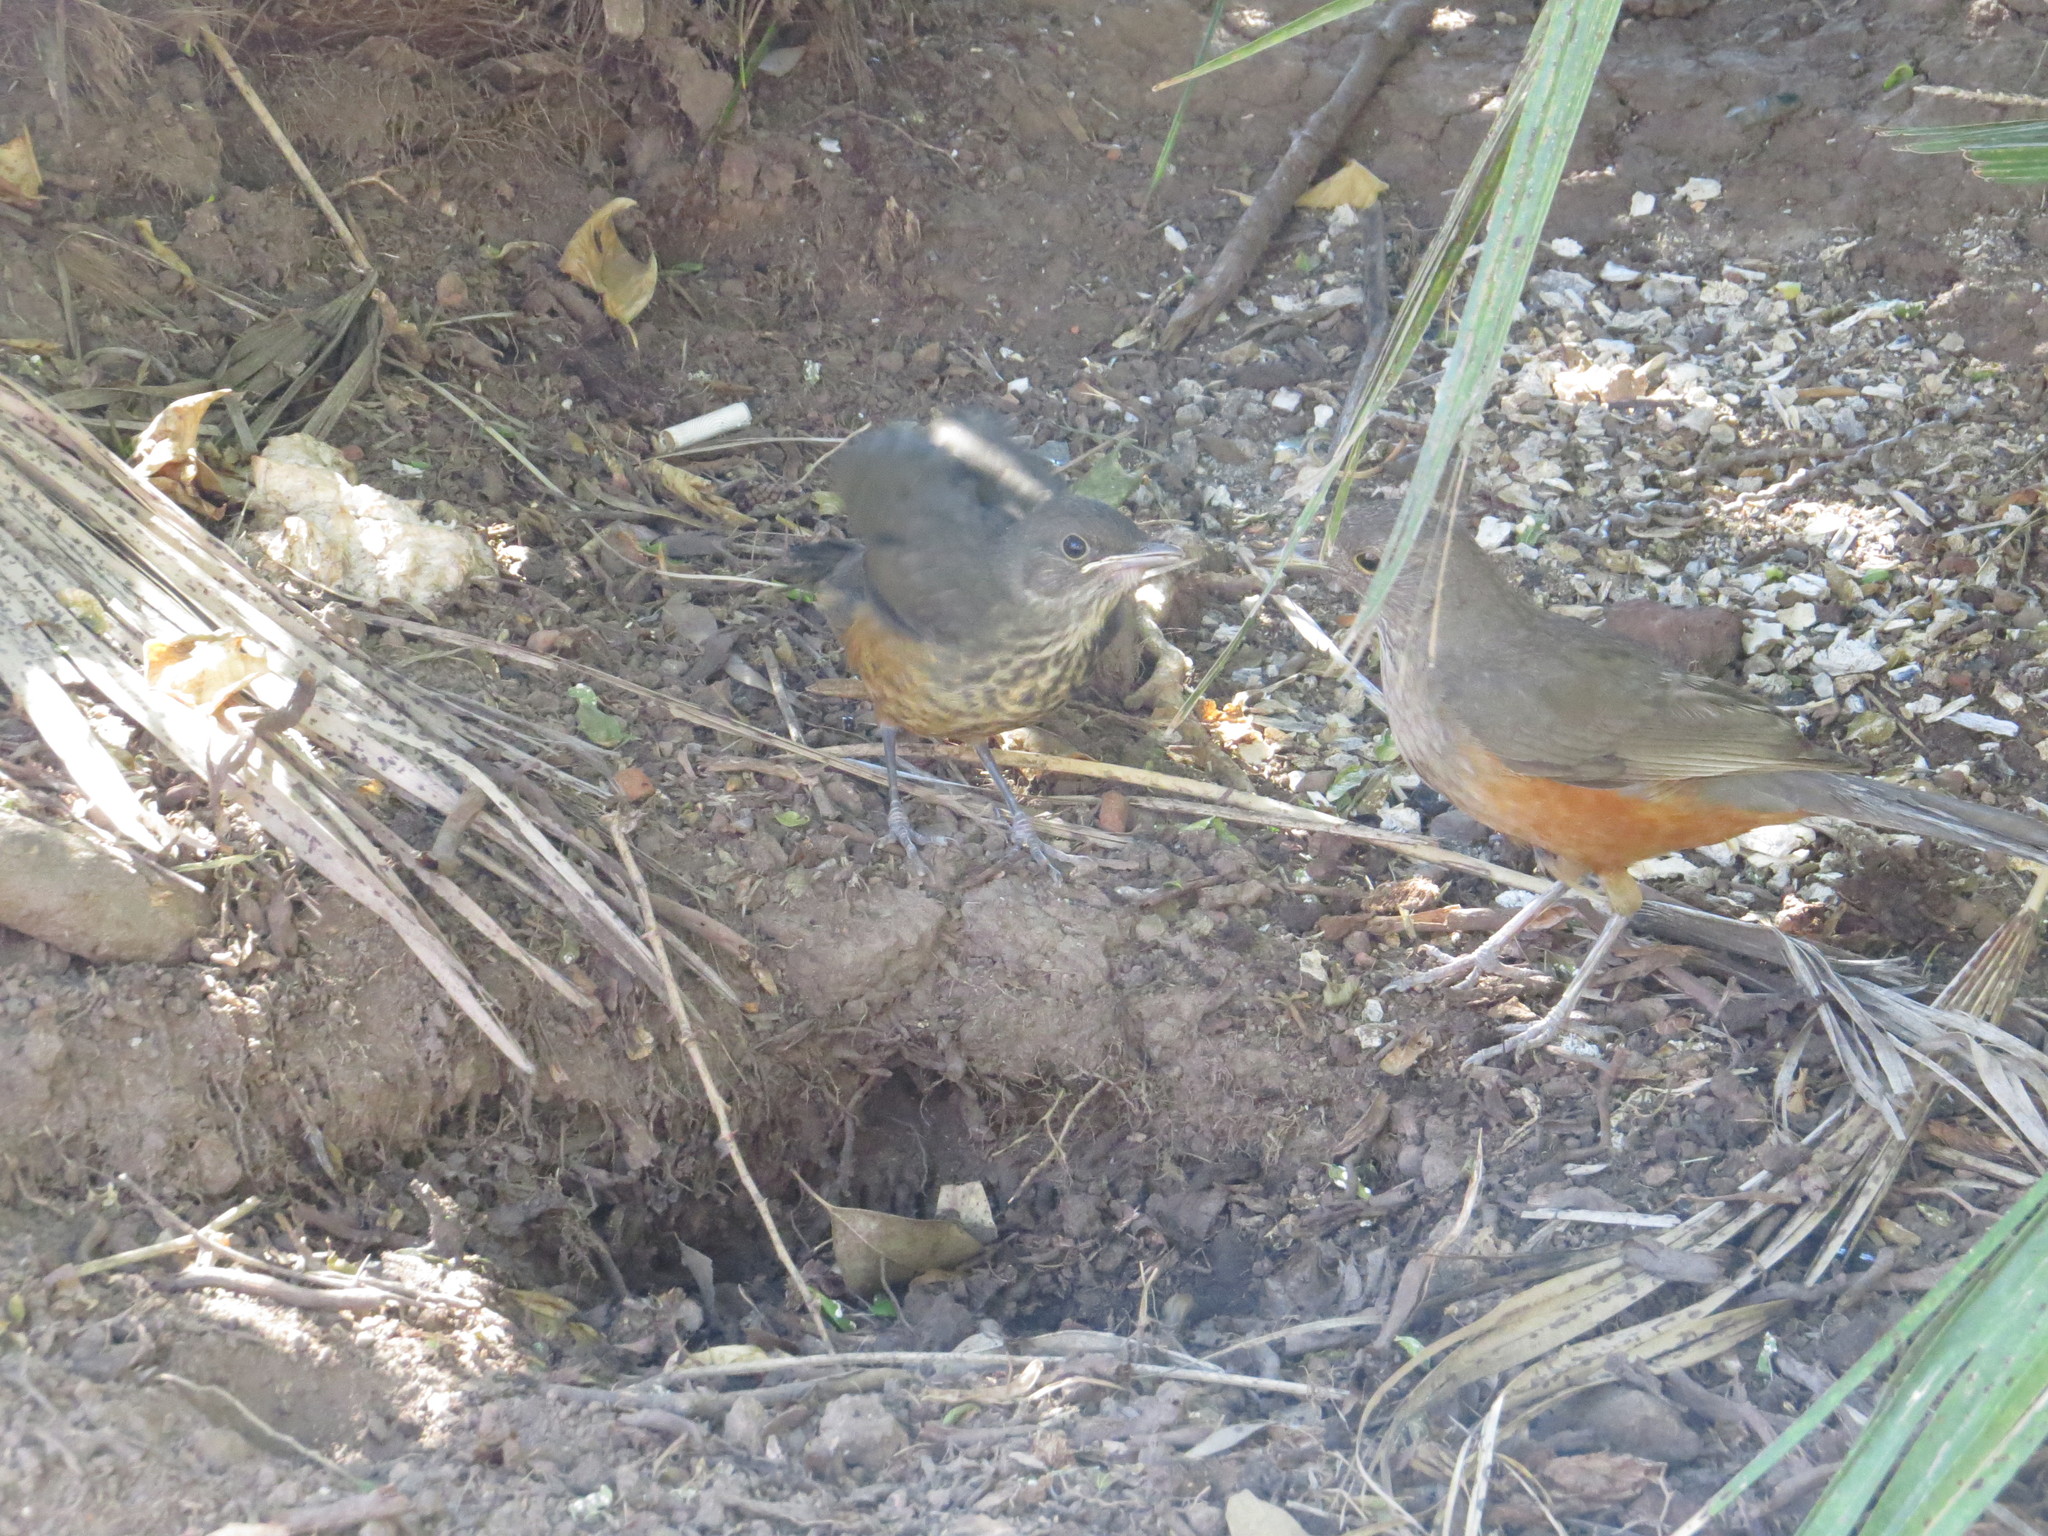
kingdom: Animalia
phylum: Chordata
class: Aves
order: Passeriformes
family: Turdidae
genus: Turdus
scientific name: Turdus rufiventris
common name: Rufous-bellied thrush
